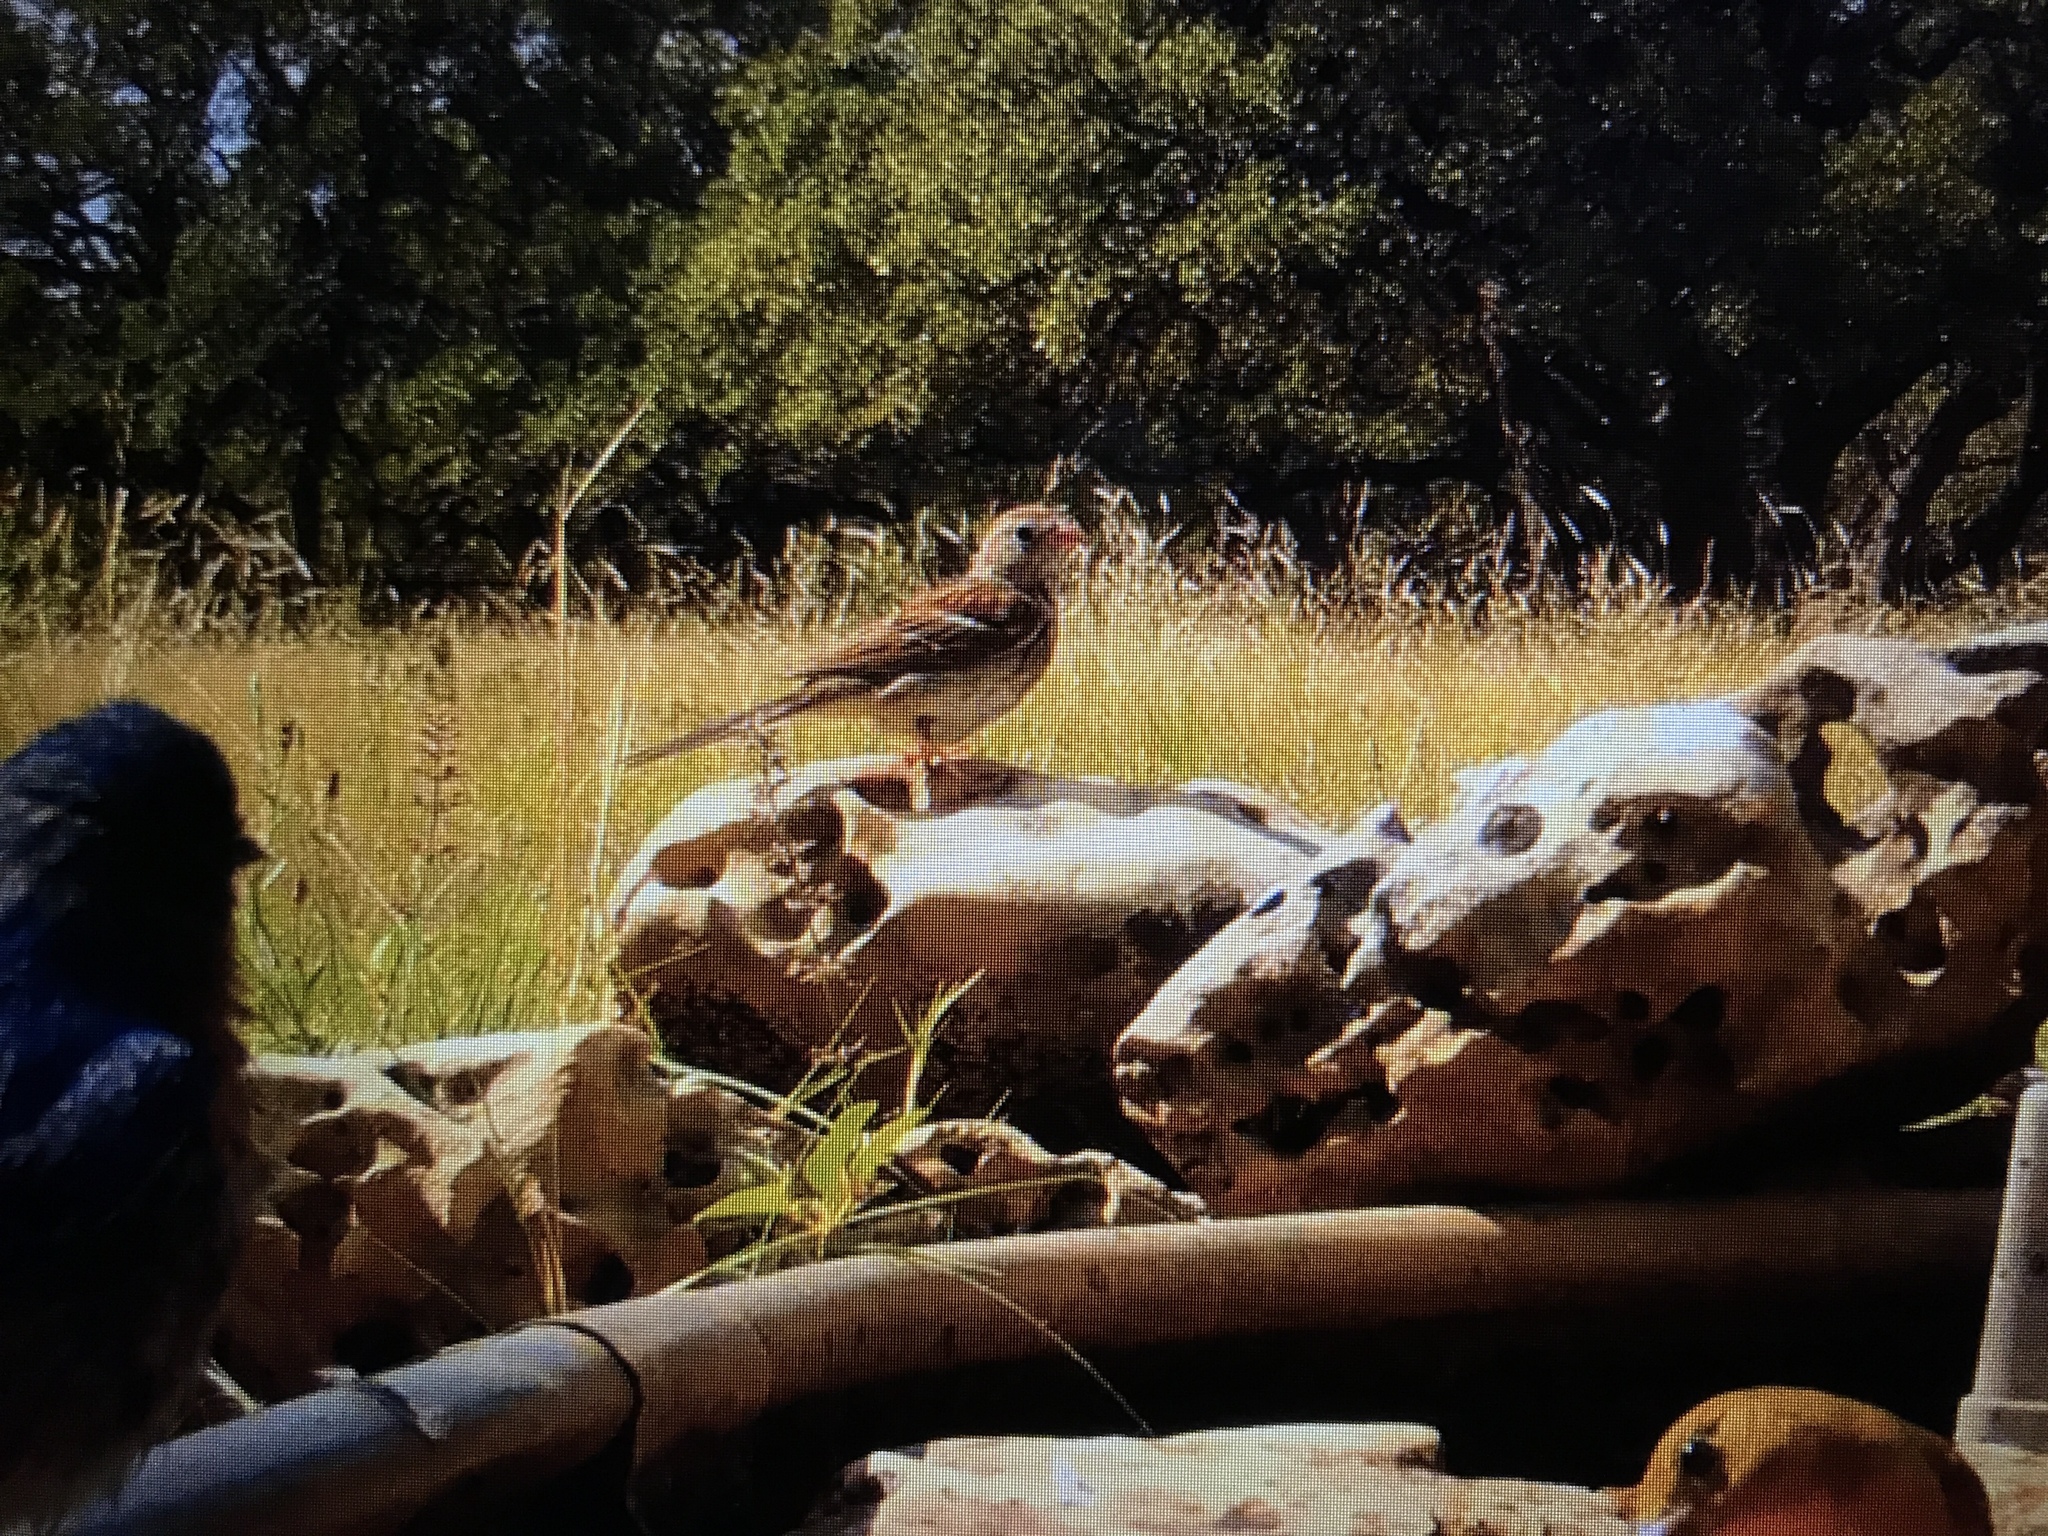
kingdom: Animalia
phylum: Chordata
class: Aves
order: Passeriformes
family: Passerellidae
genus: Spizella
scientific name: Spizella pusilla
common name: Field sparrow
